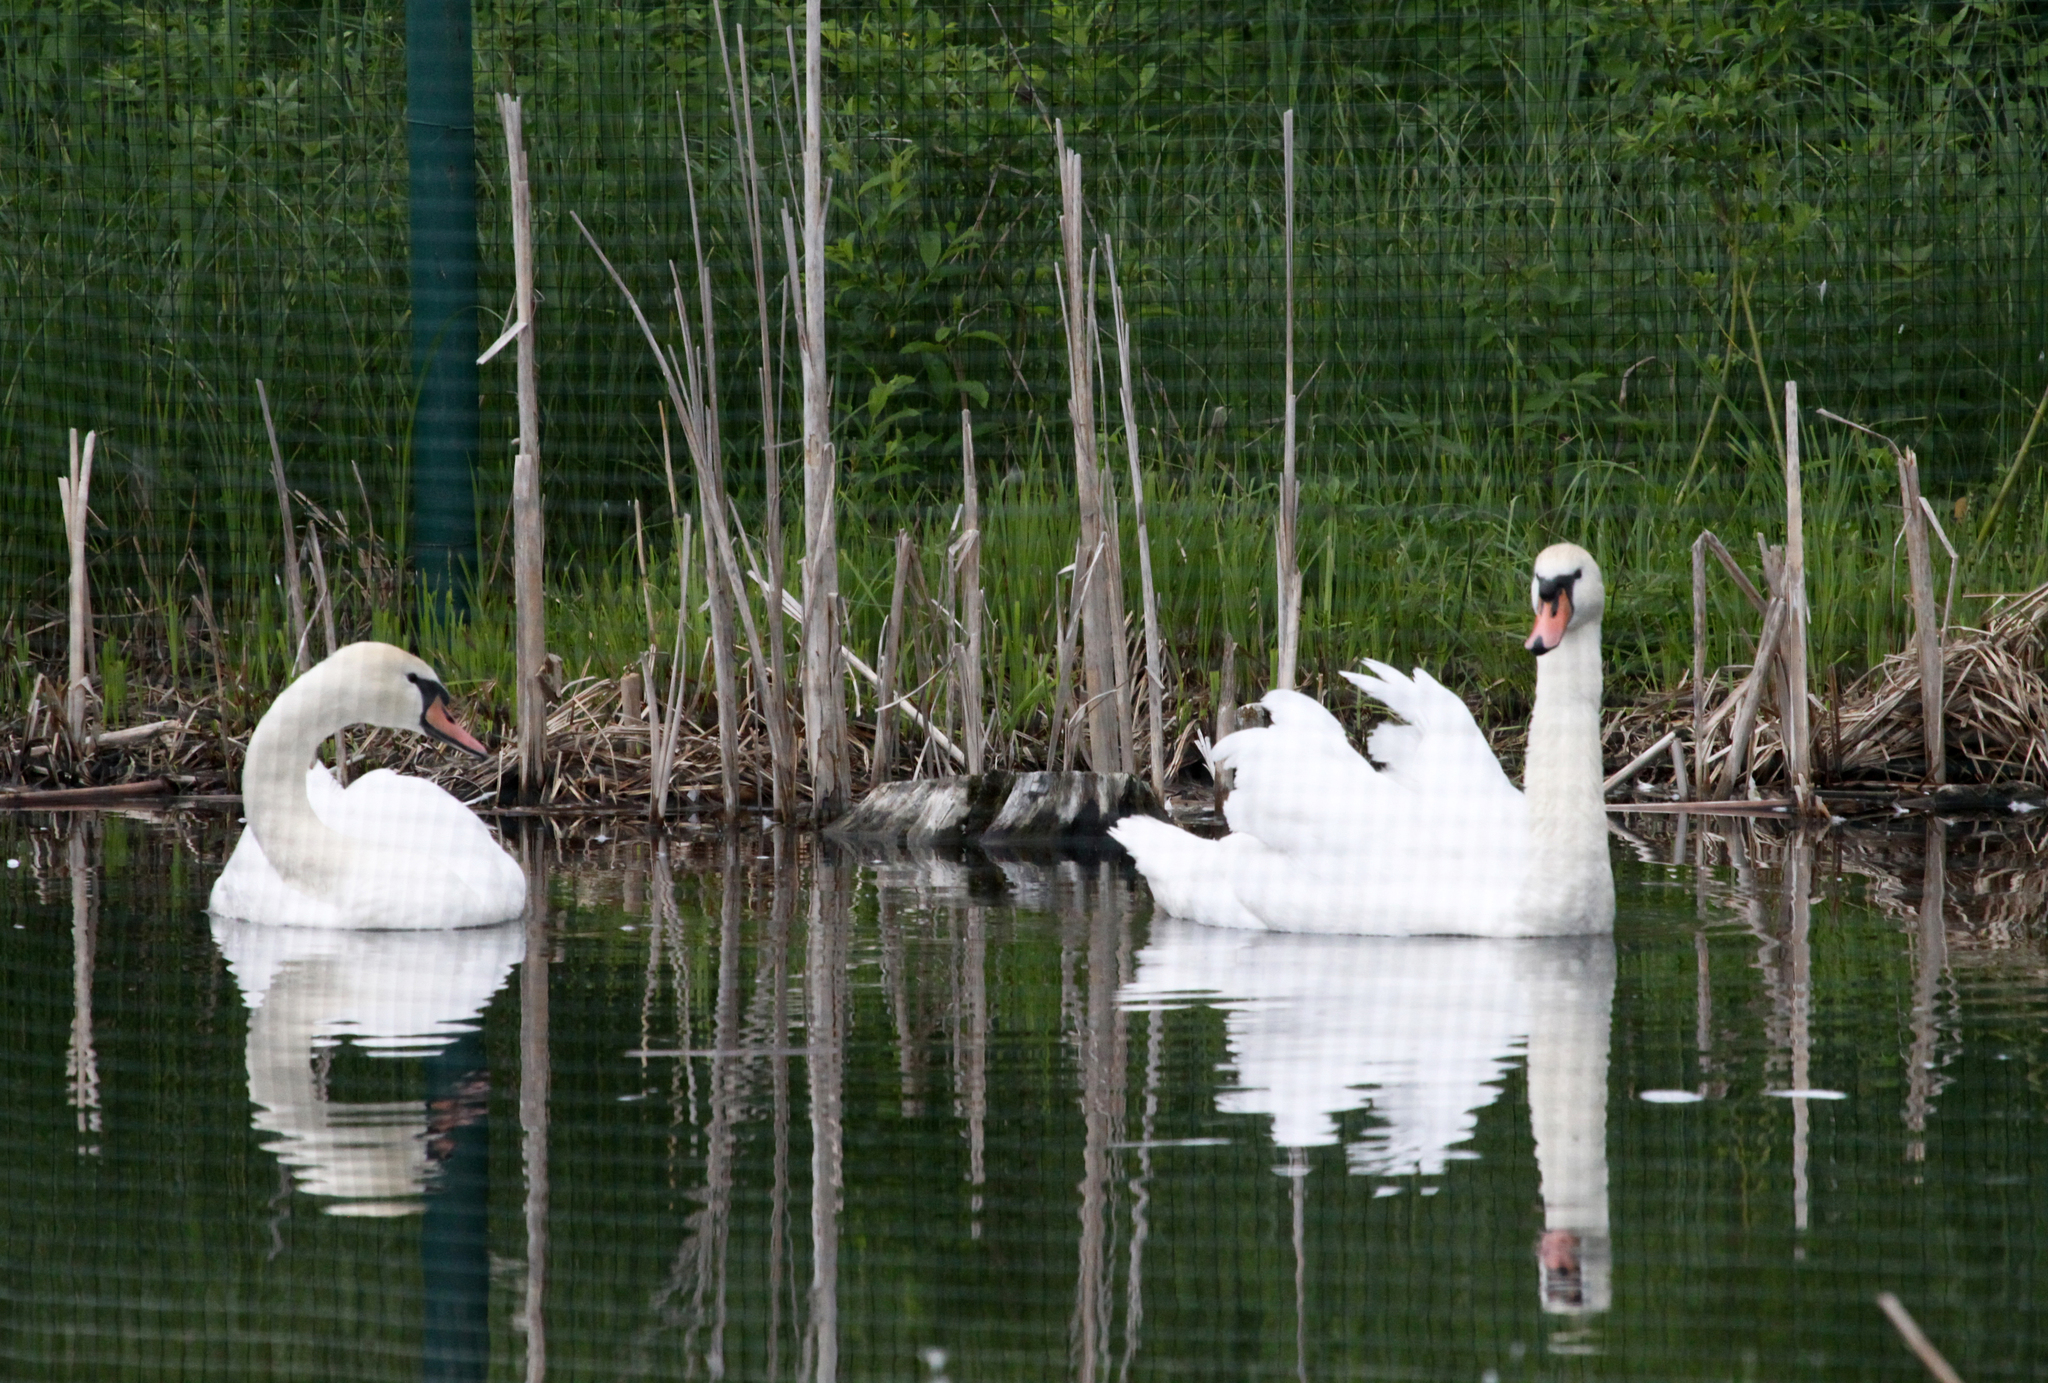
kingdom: Animalia
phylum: Chordata
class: Aves
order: Anseriformes
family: Anatidae
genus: Cygnus
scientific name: Cygnus olor
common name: Mute swan
